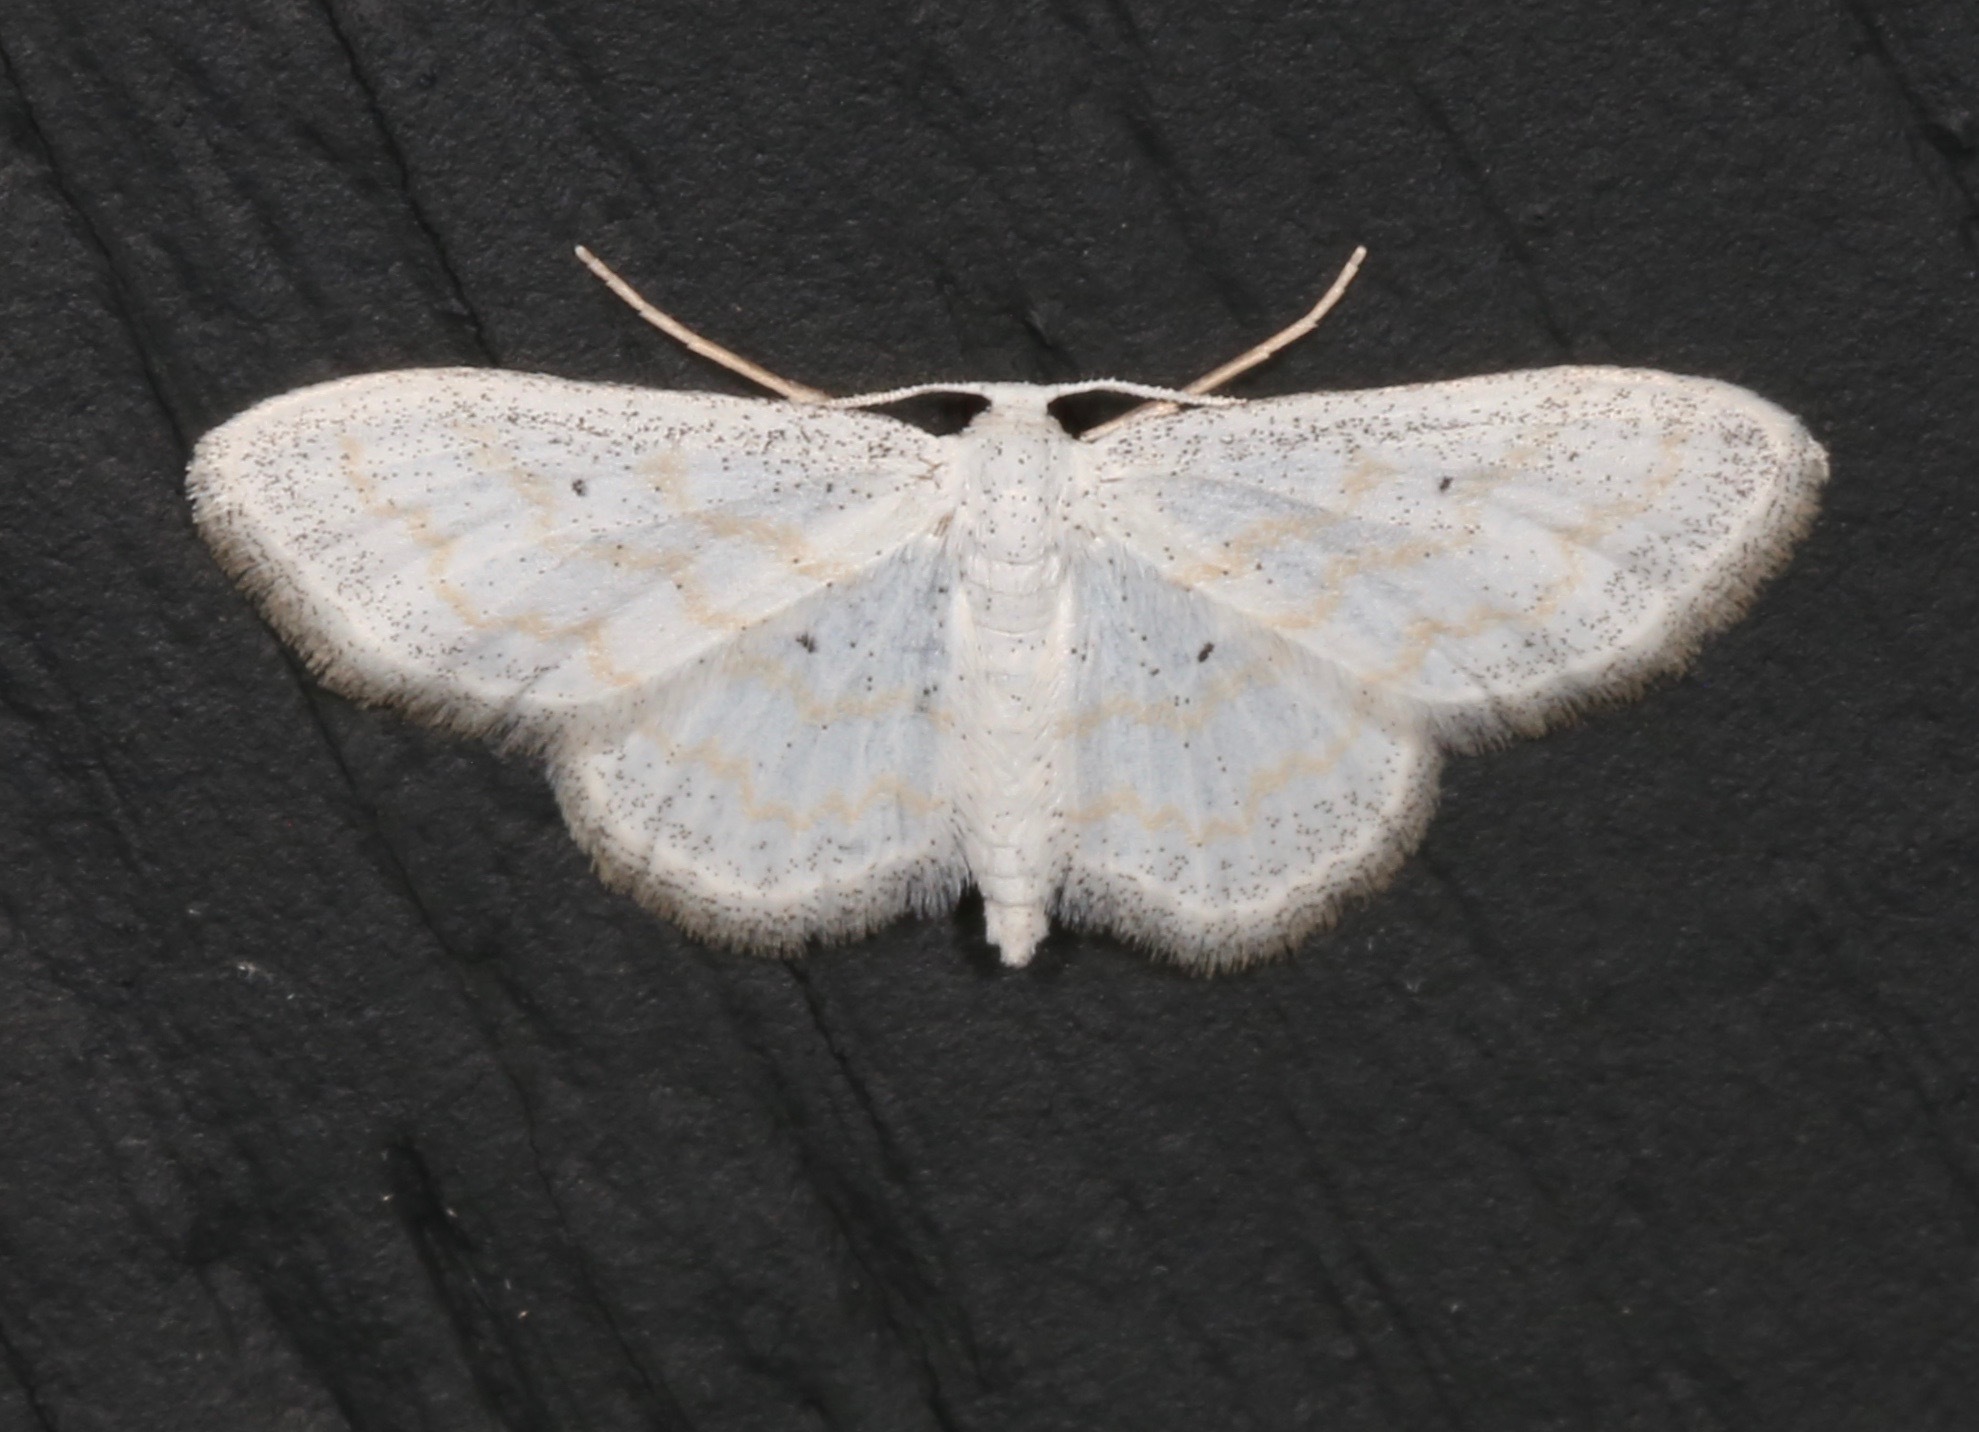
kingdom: Animalia
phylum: Arthropoda
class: Insecta
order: Lepidoptera
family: Geometridae
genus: Lobocleta
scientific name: Lobocleta peralbata
